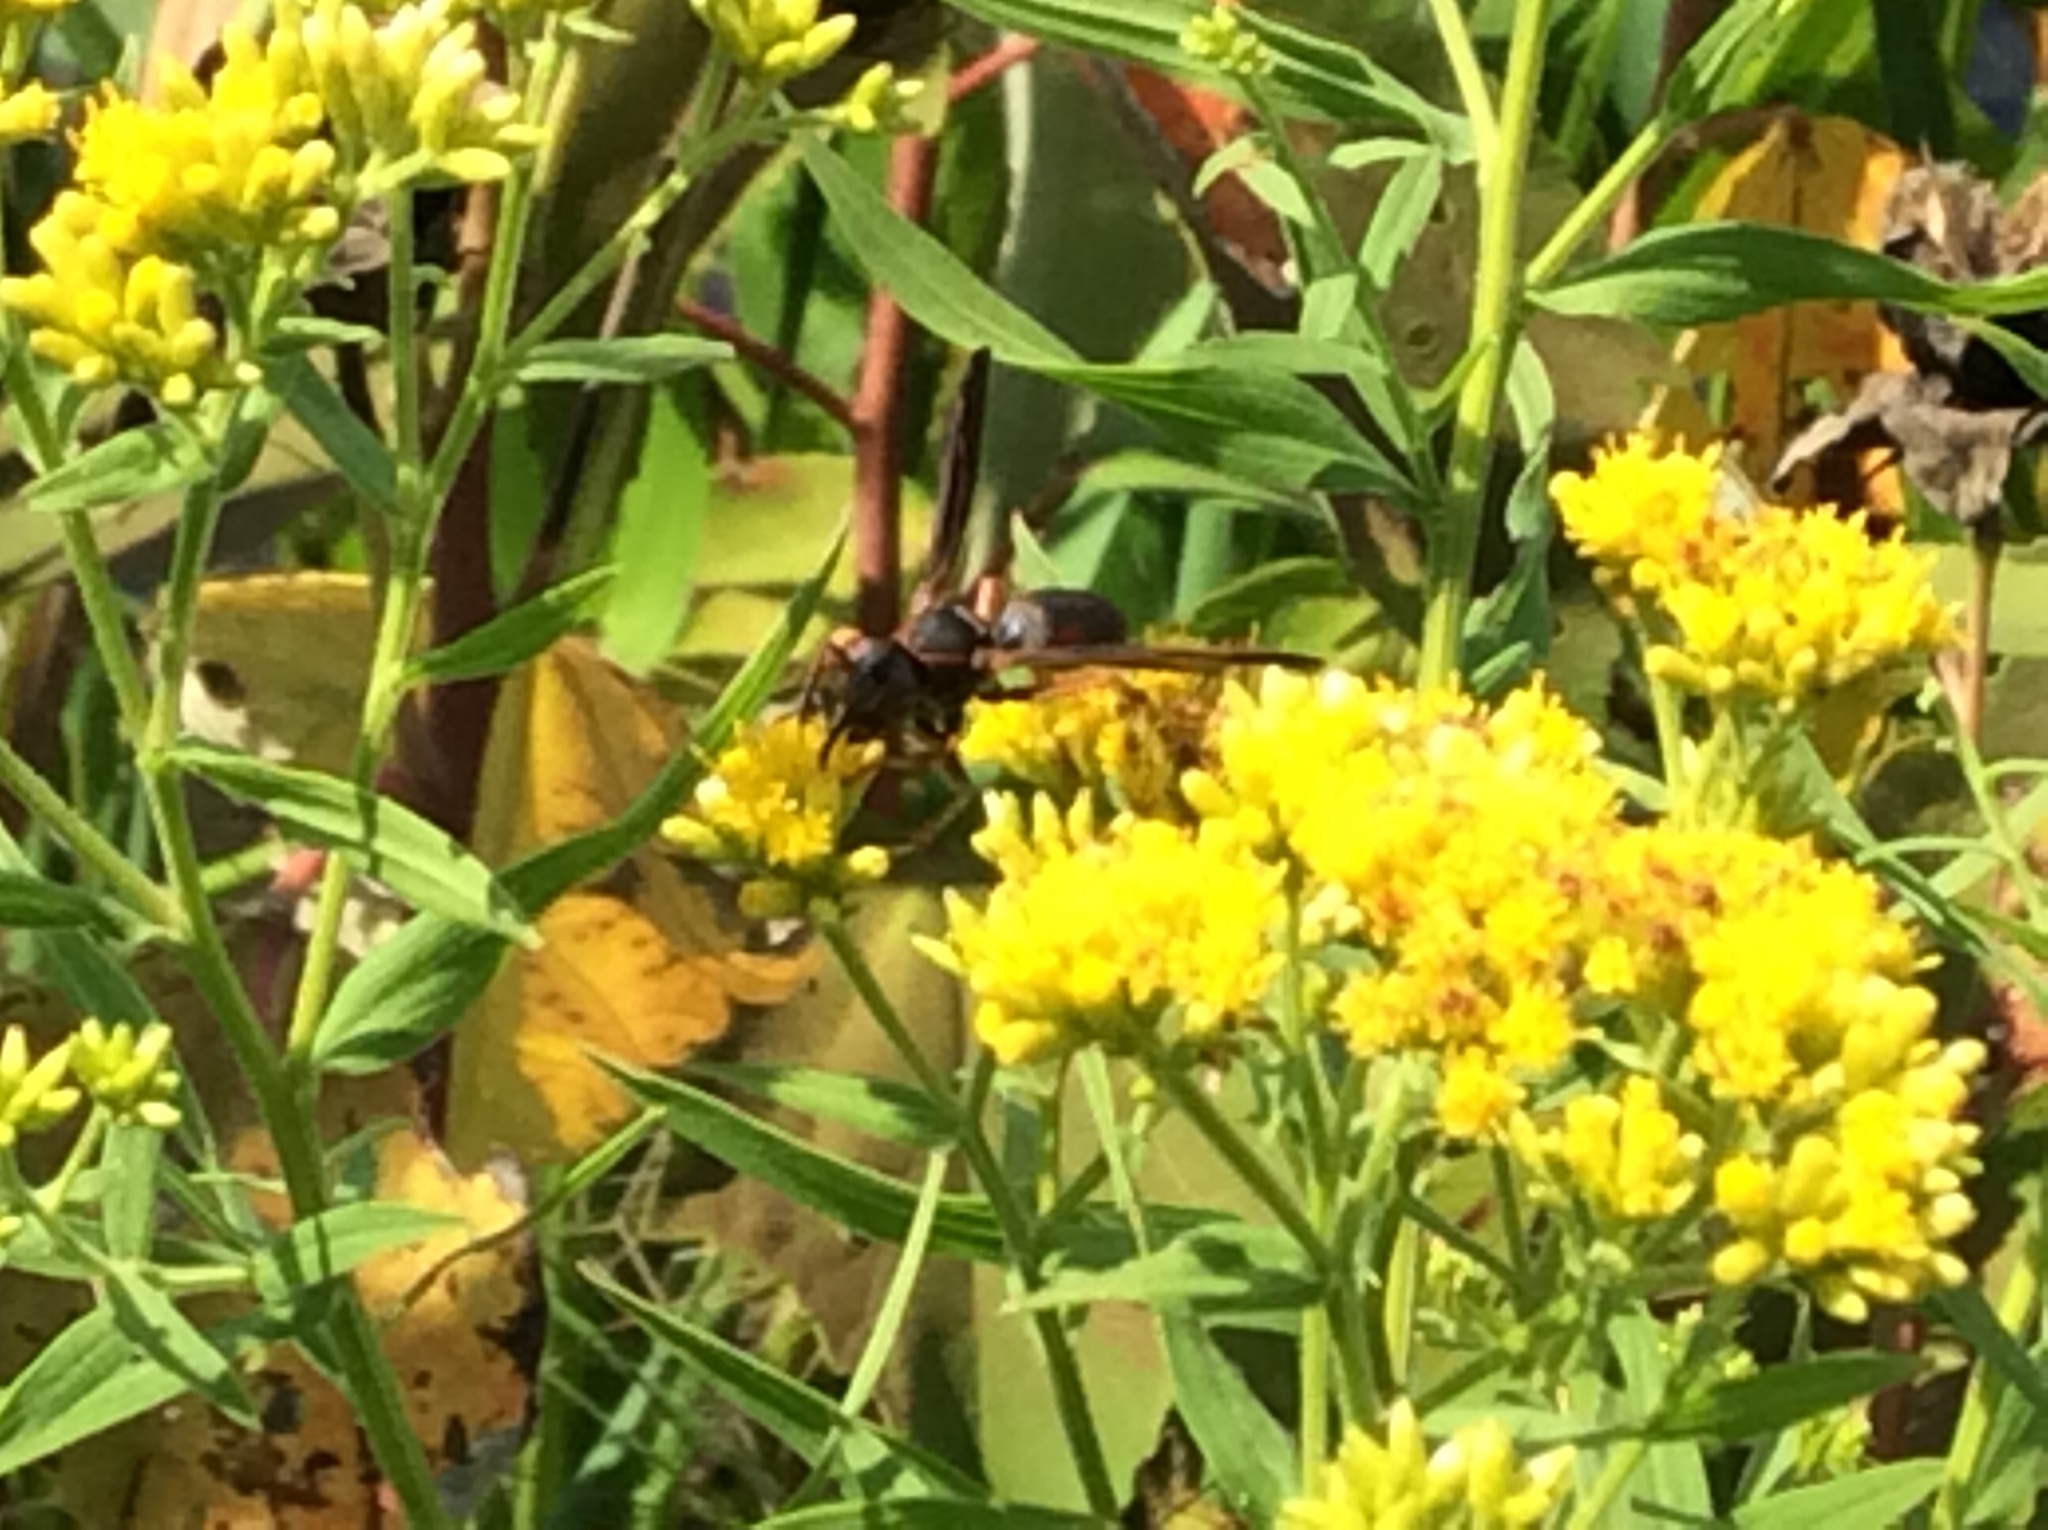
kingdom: Animalia
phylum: Arthropoda
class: Insecta
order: Hymenoptera
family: Eumenidae
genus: Polistes
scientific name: Polistes metricus
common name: Metric paper wasp
